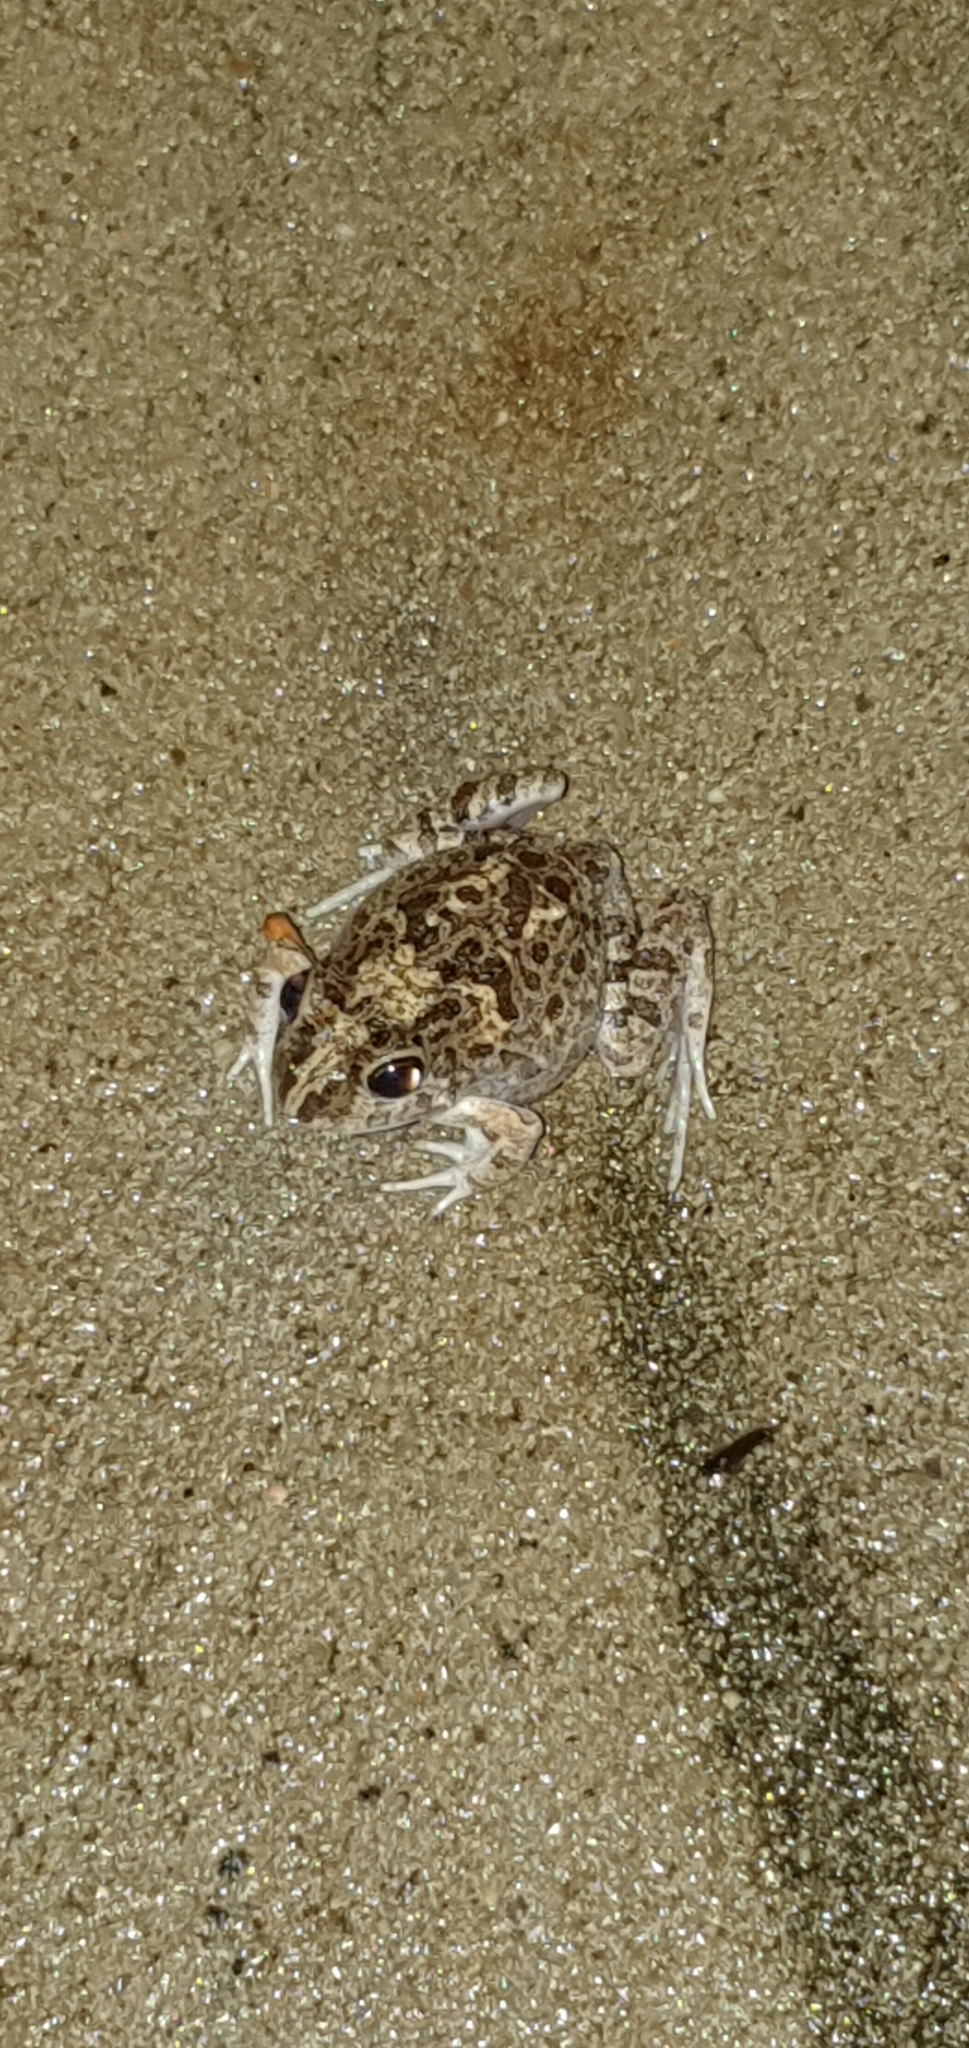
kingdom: Animalia
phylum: Chordata
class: Amphibia
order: Anura
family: Limnodynastidae
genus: Platyplectrum
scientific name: Platyplectrum ornatum
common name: Ornate burrowing frog
